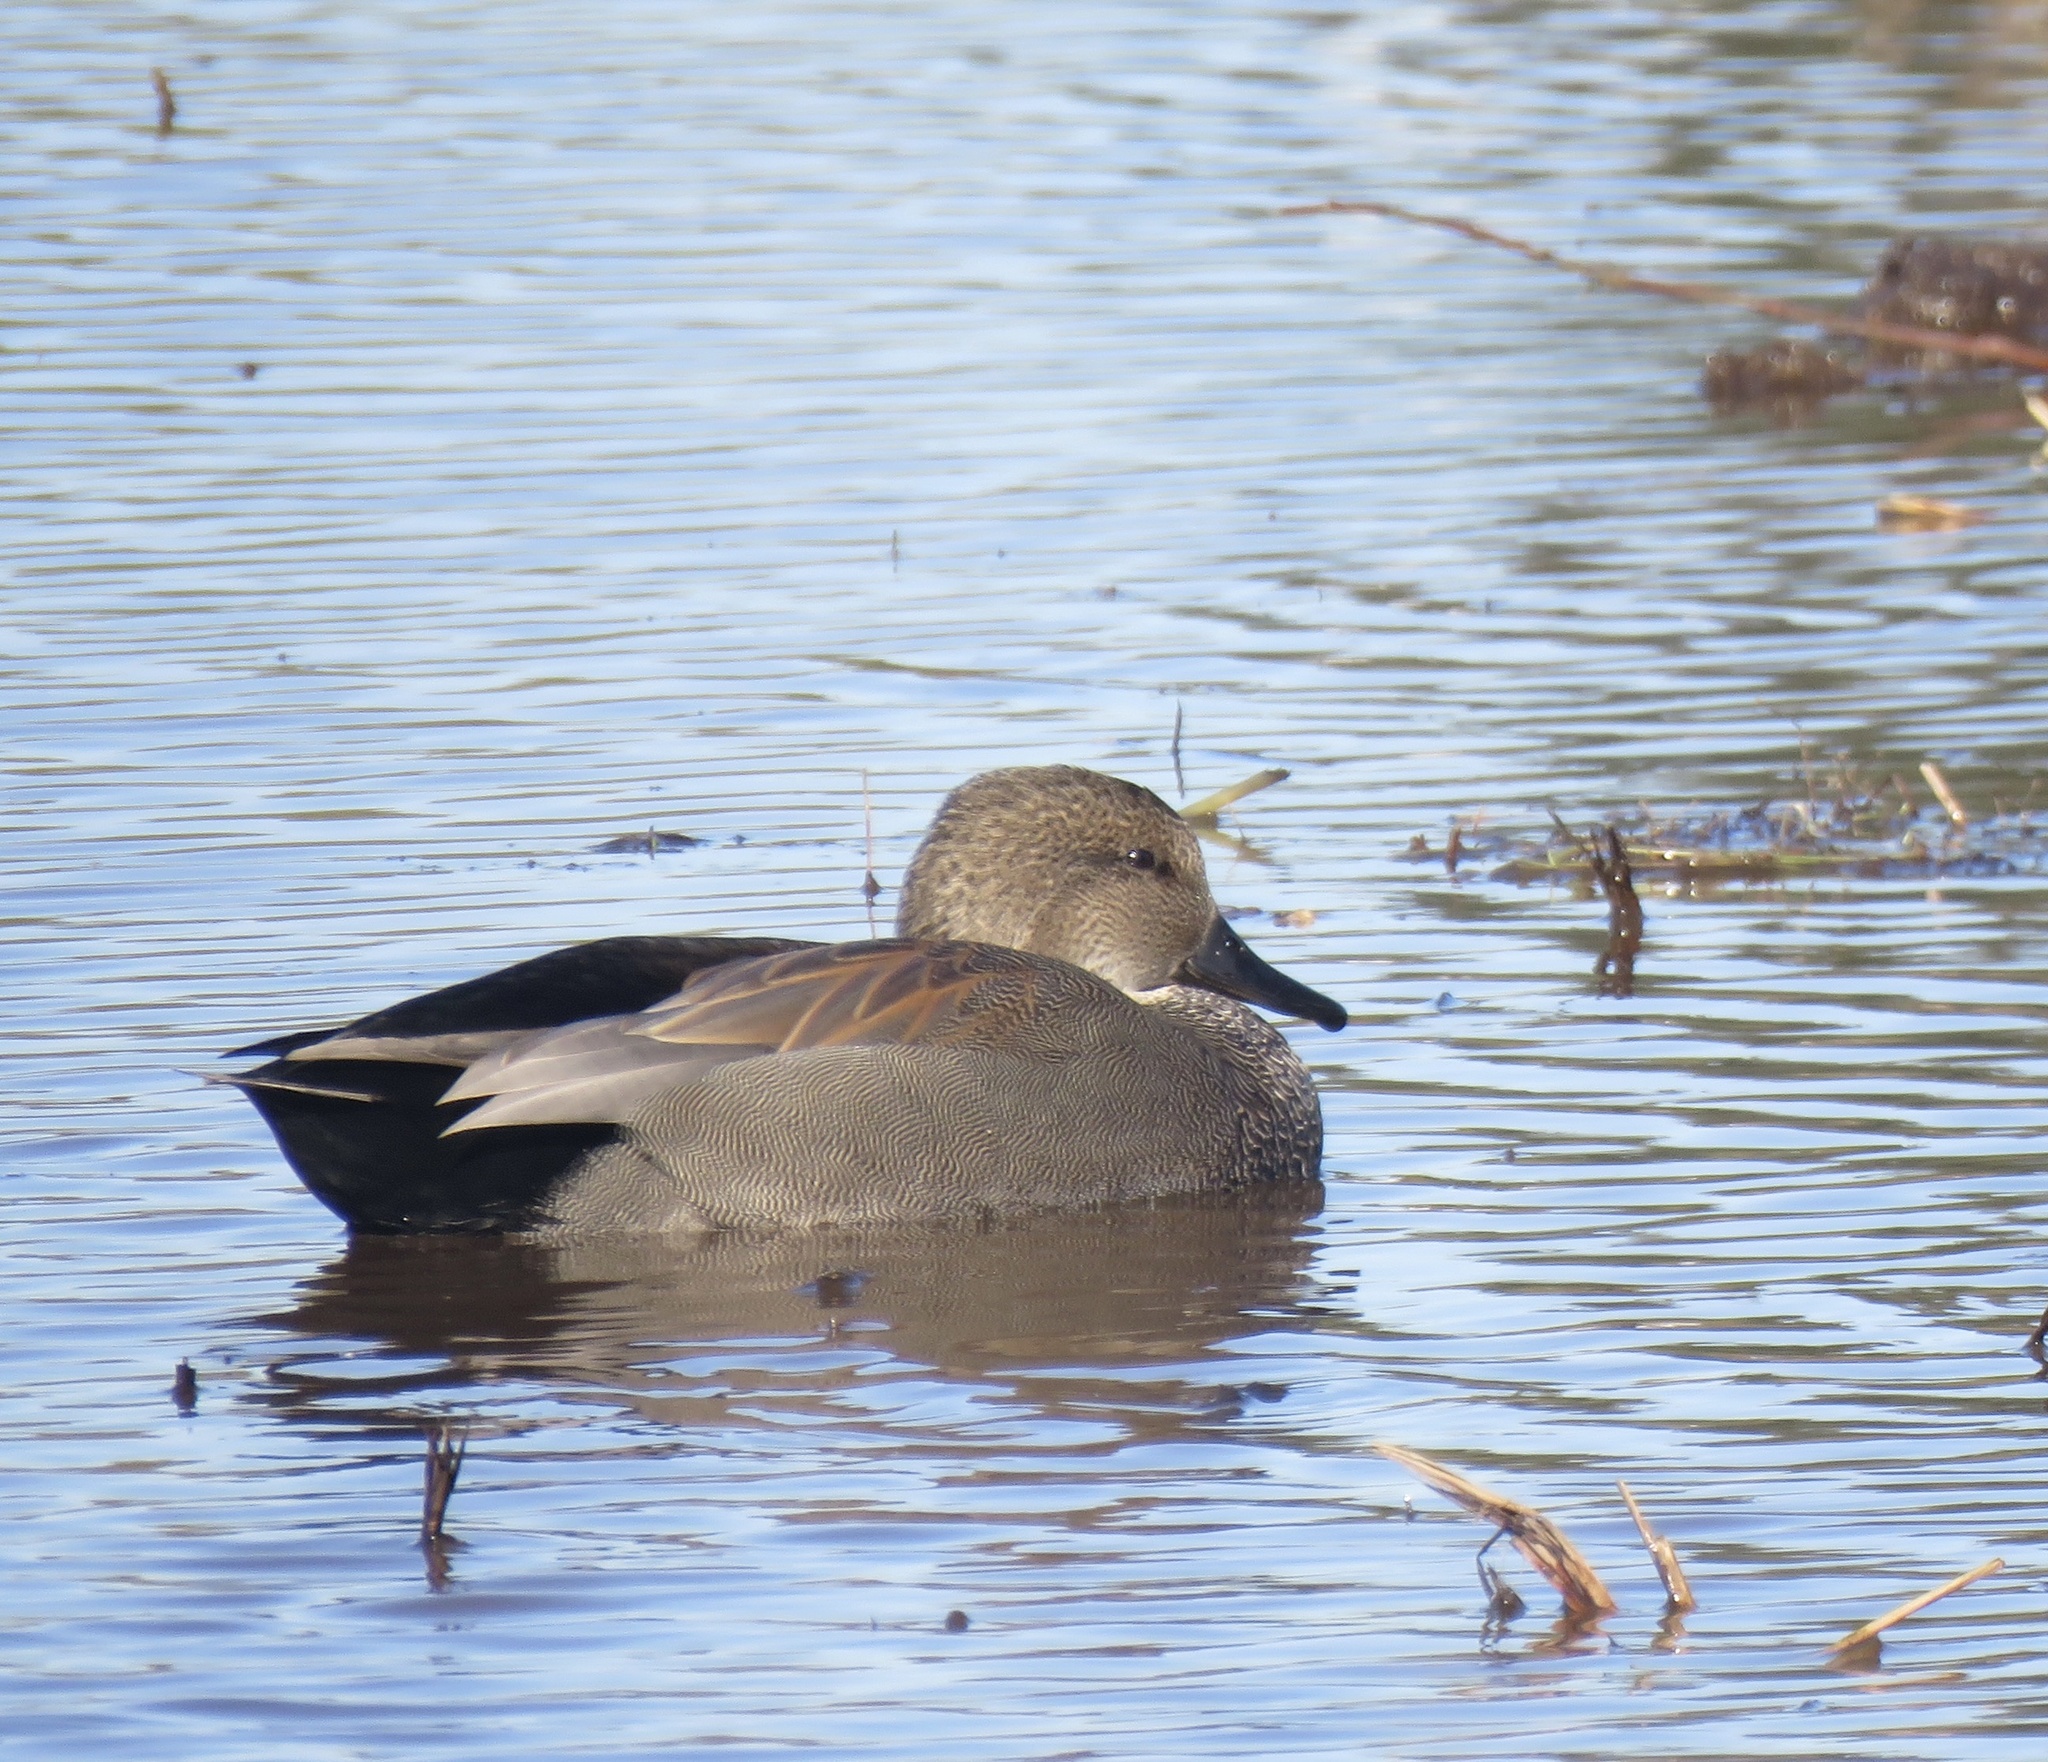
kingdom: Animalia
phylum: Chordata
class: Aves
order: Anseriformes
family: Anatidae
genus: Mareca
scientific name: Mareca strepera
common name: Gadwall
